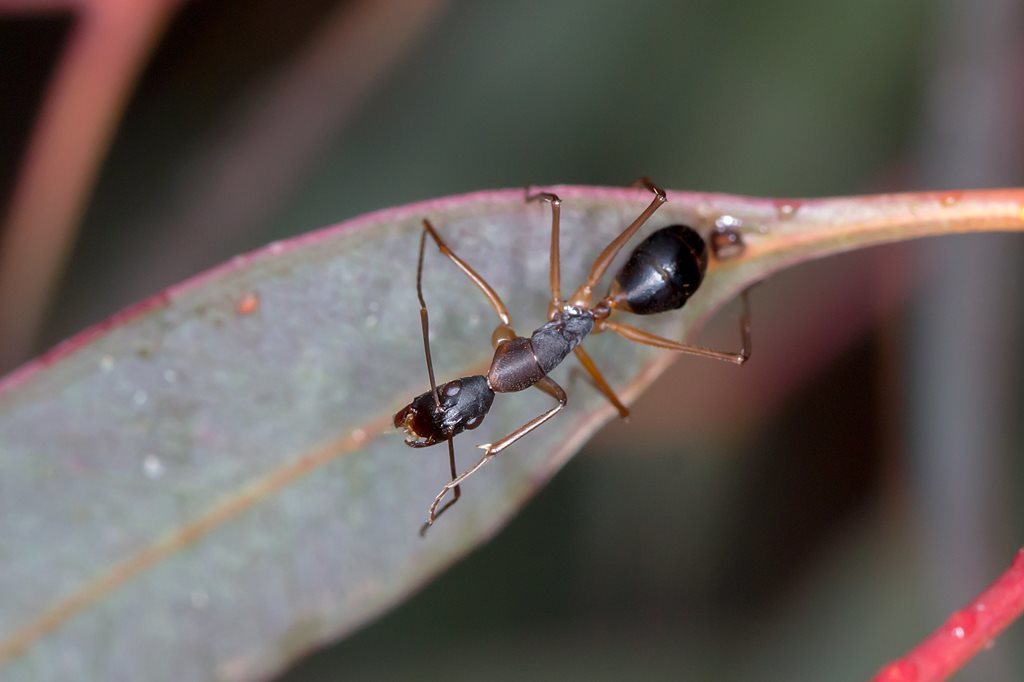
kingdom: Animalia
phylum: Arthropoda
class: Insecta
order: Hymenoptera
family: Formicidae
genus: Camponotus
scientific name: Camponotus subnitidus
